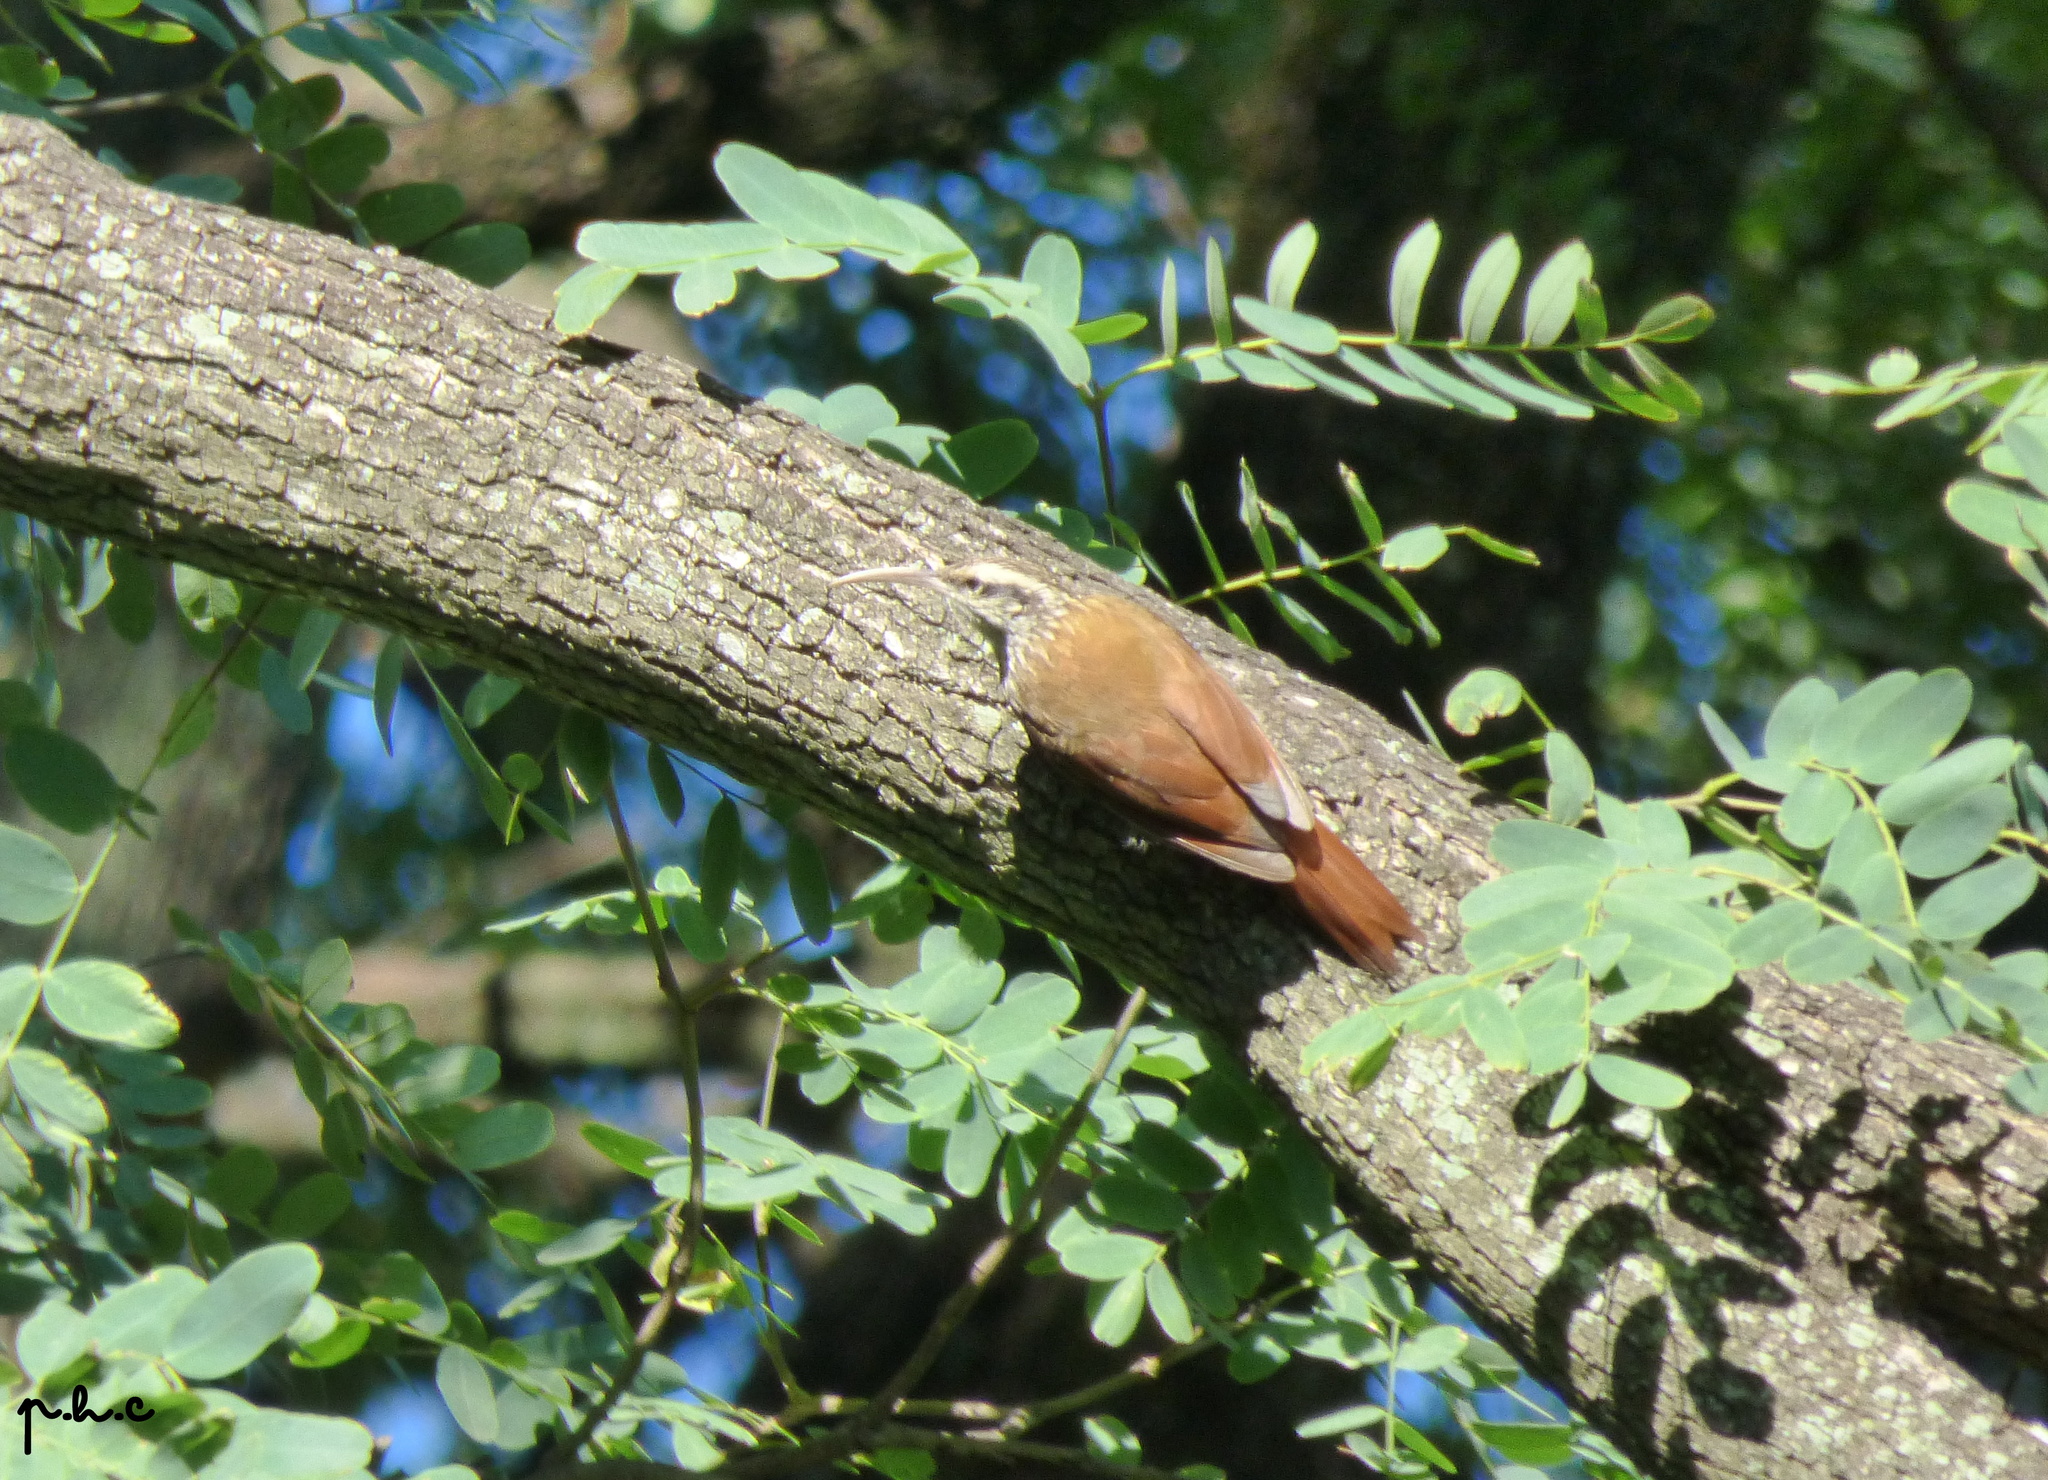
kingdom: Animalia
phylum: Chordata
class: Aves
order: Passeriformes
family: Furnariidae
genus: Lepidocolaptes
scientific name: Lepidocolaptes angustirostris
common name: Narrow-billed woodcreeper
